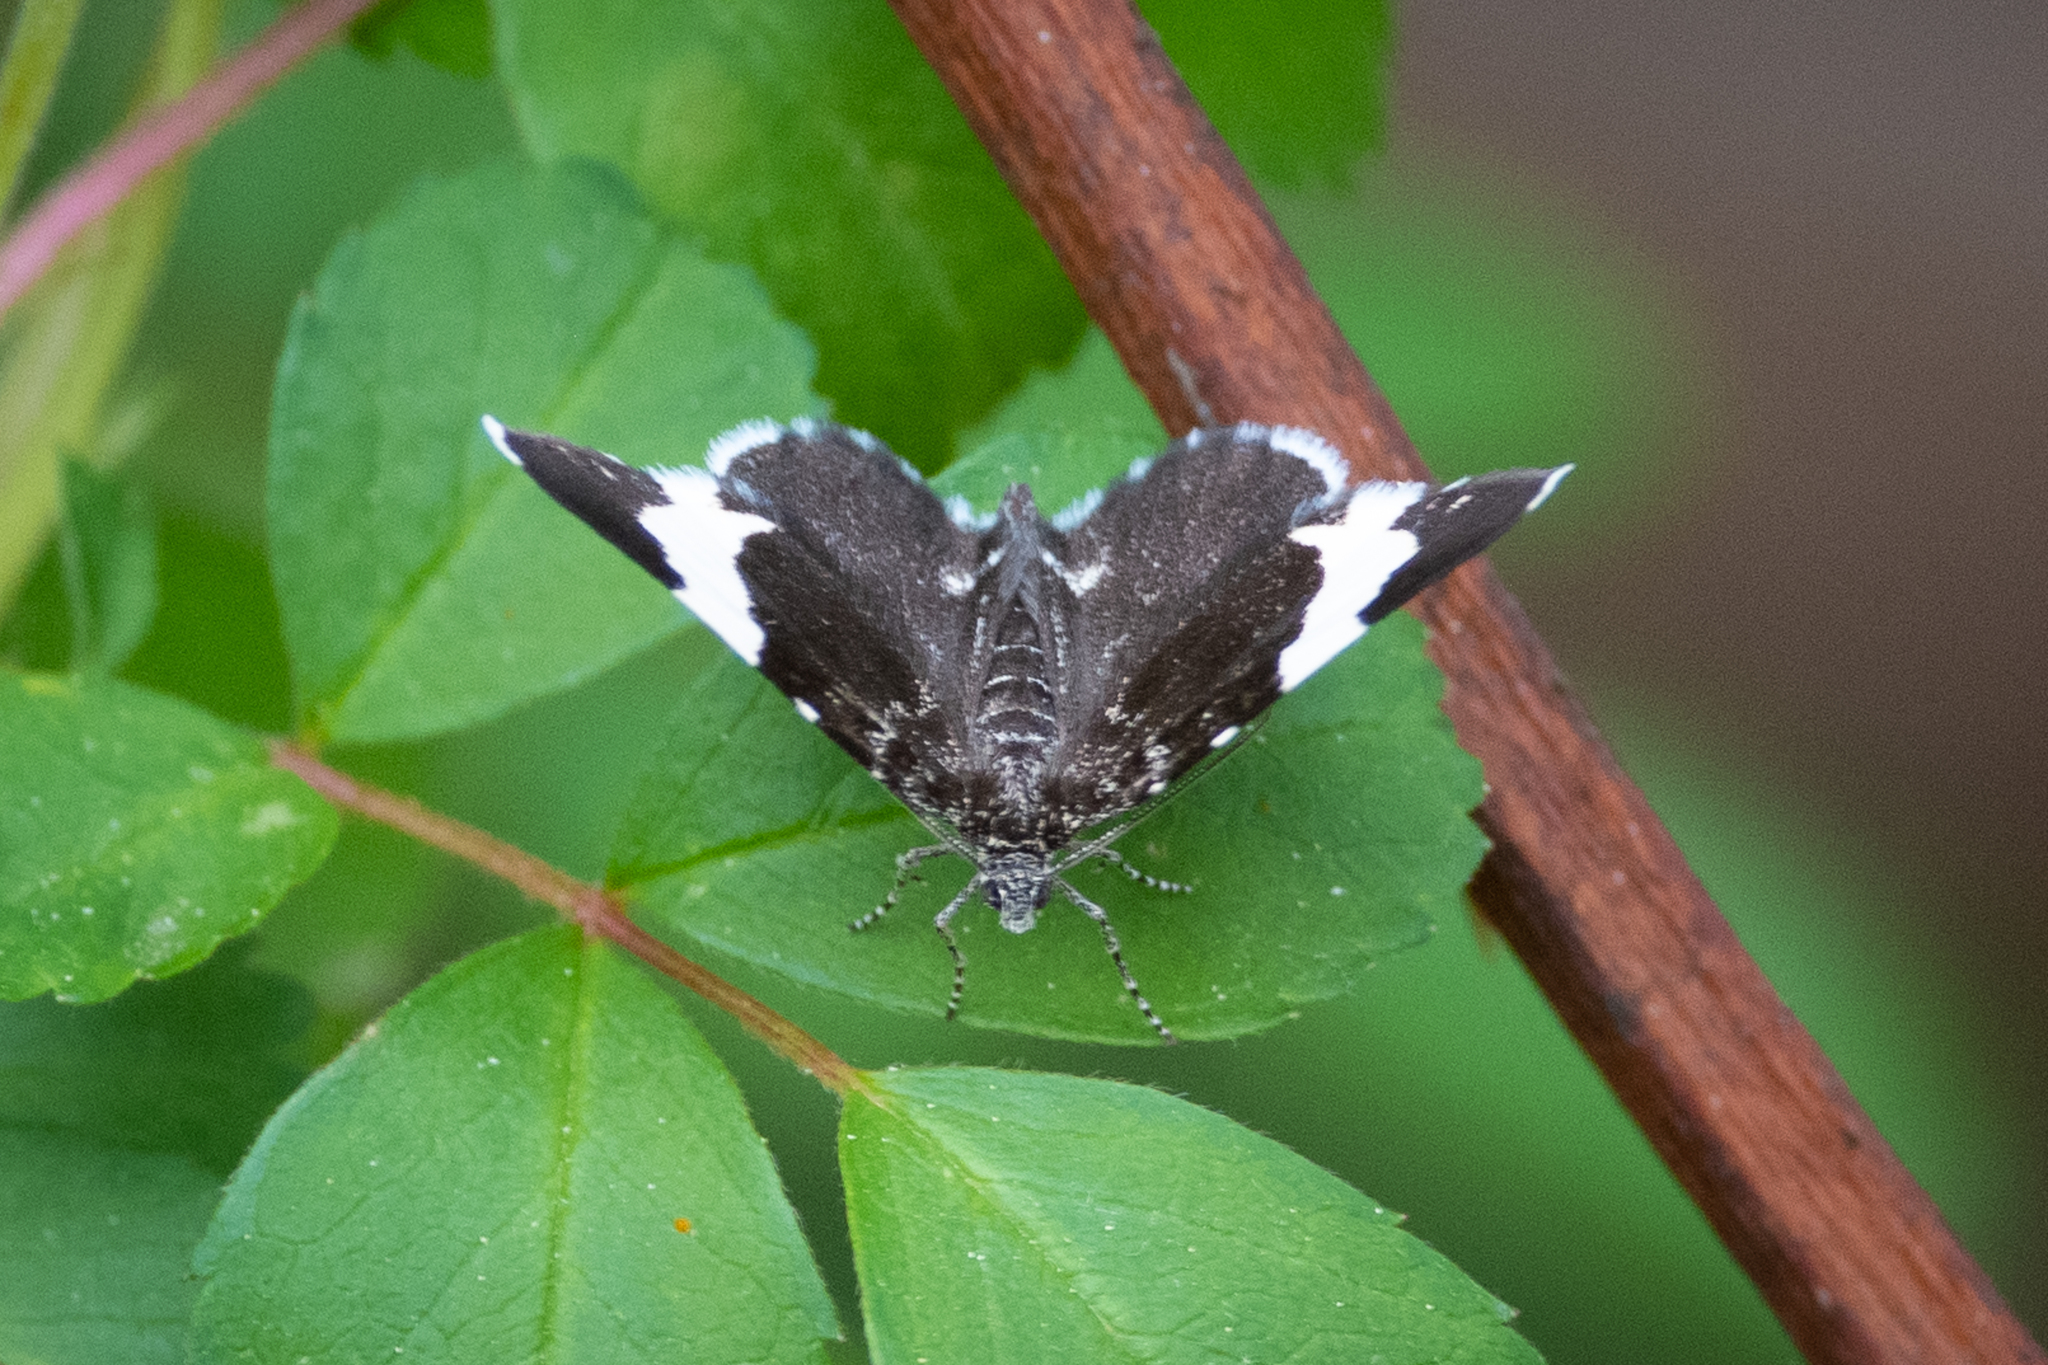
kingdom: Animalia
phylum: Arthropoda
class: Insecta
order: Lepidoptera
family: Geometridae
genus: Trichodezia
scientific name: Trichodezia albovittata
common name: White striped black
